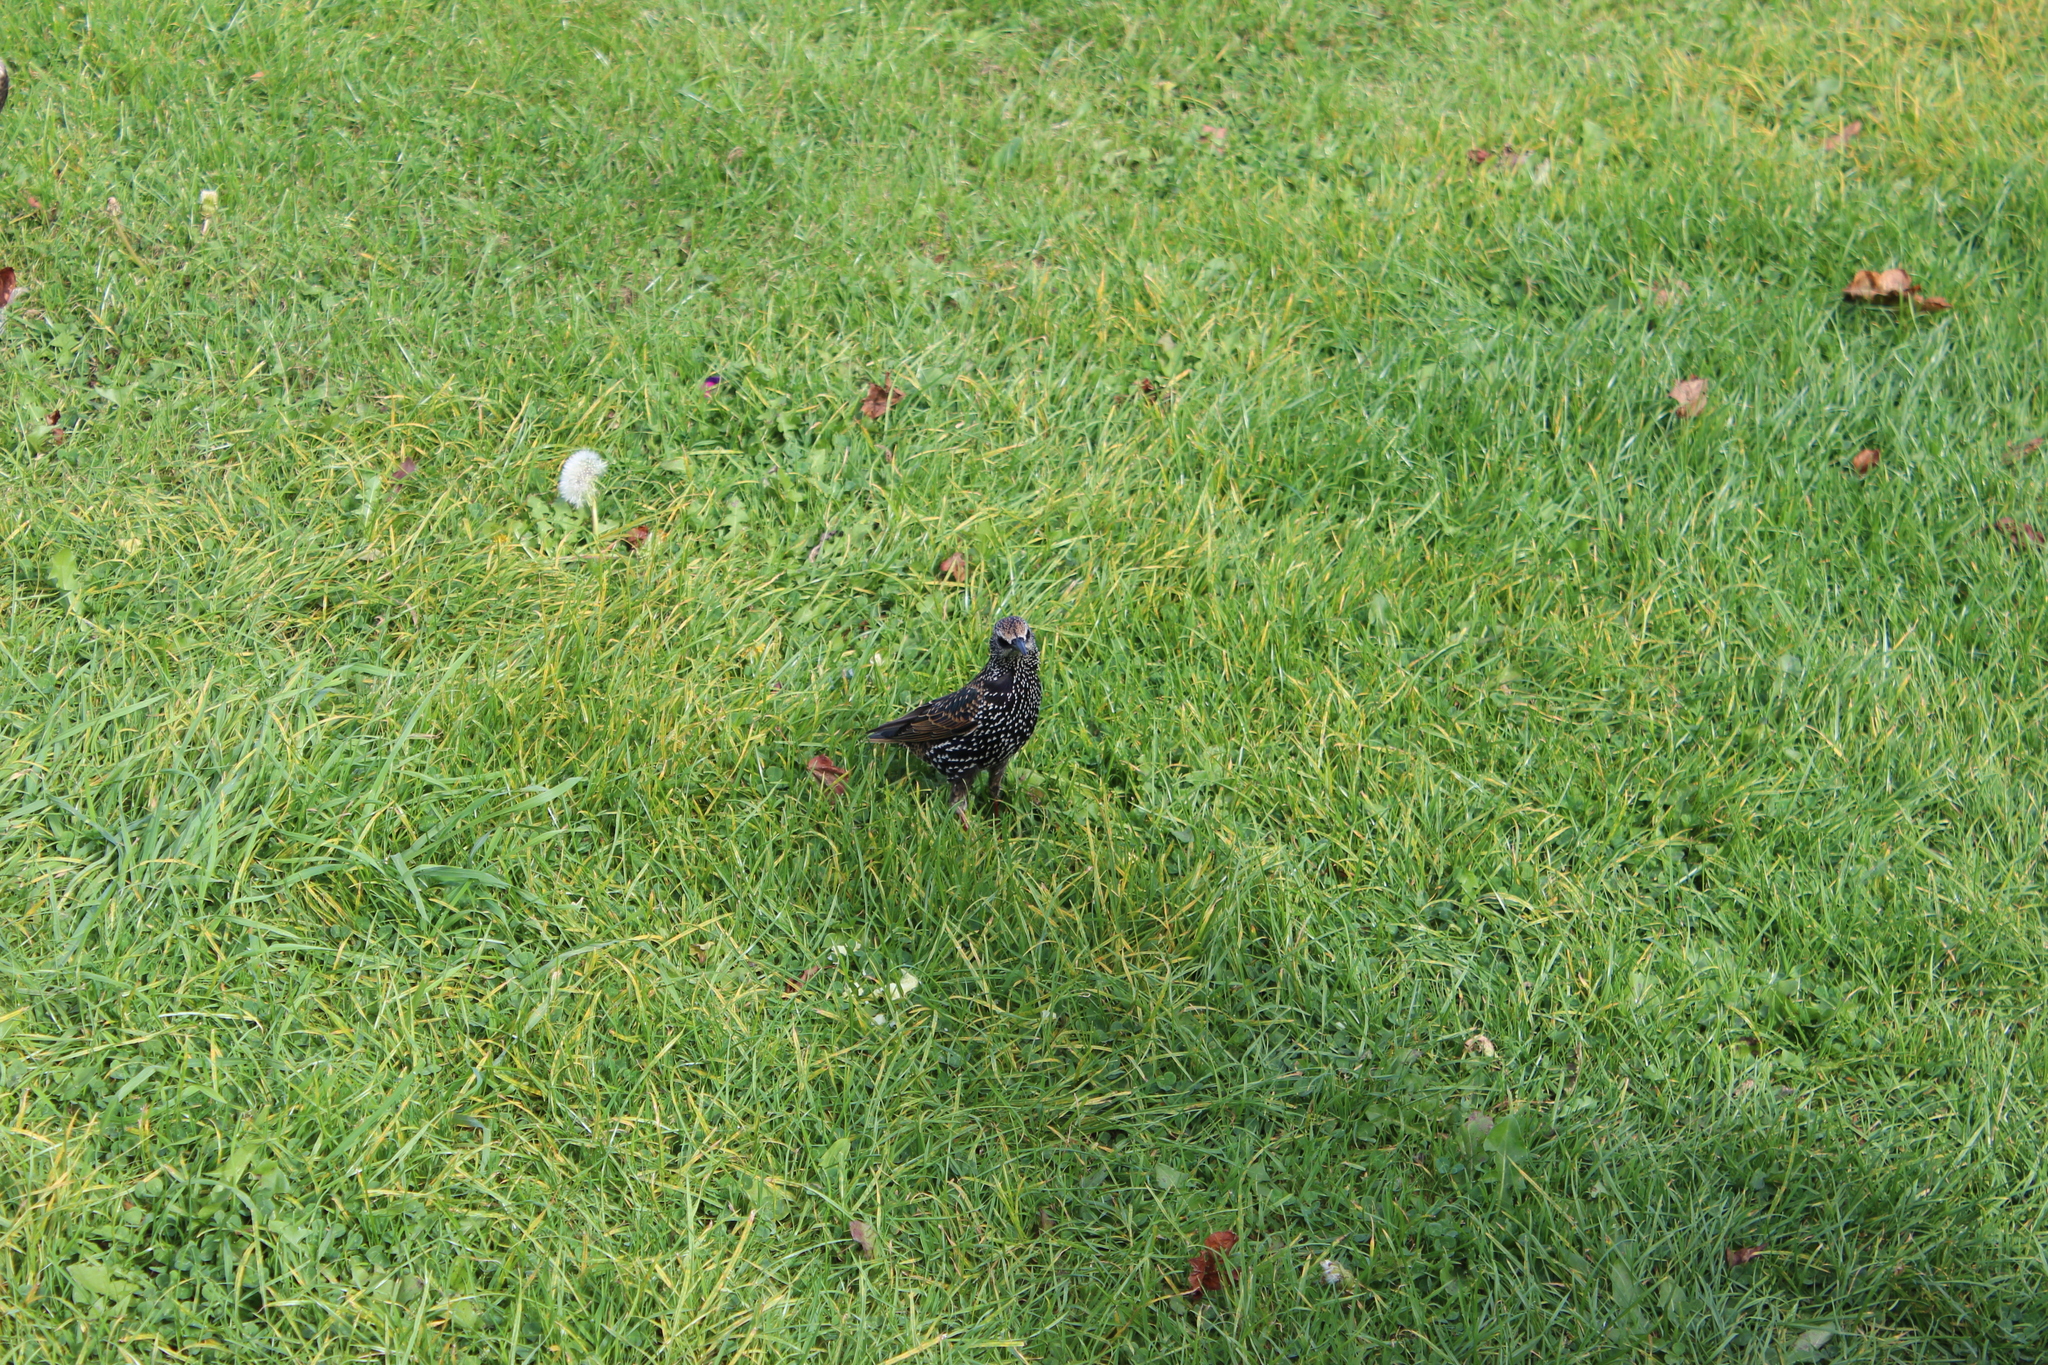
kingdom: Animalia
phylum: Chordata
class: Aves
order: Passeriformes
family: Sturnidae
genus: Sturnus
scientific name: Sturnus vulgaris
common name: Common starling
